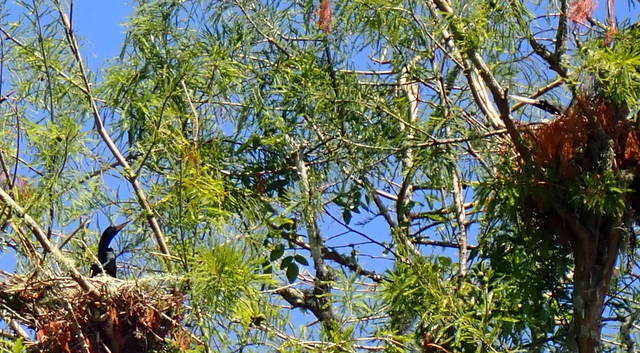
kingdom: Animalia
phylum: Chordata
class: Aves
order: Suliformes
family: Anhingidae
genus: Anhinga
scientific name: Anhinga anhinga
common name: Anhinga
